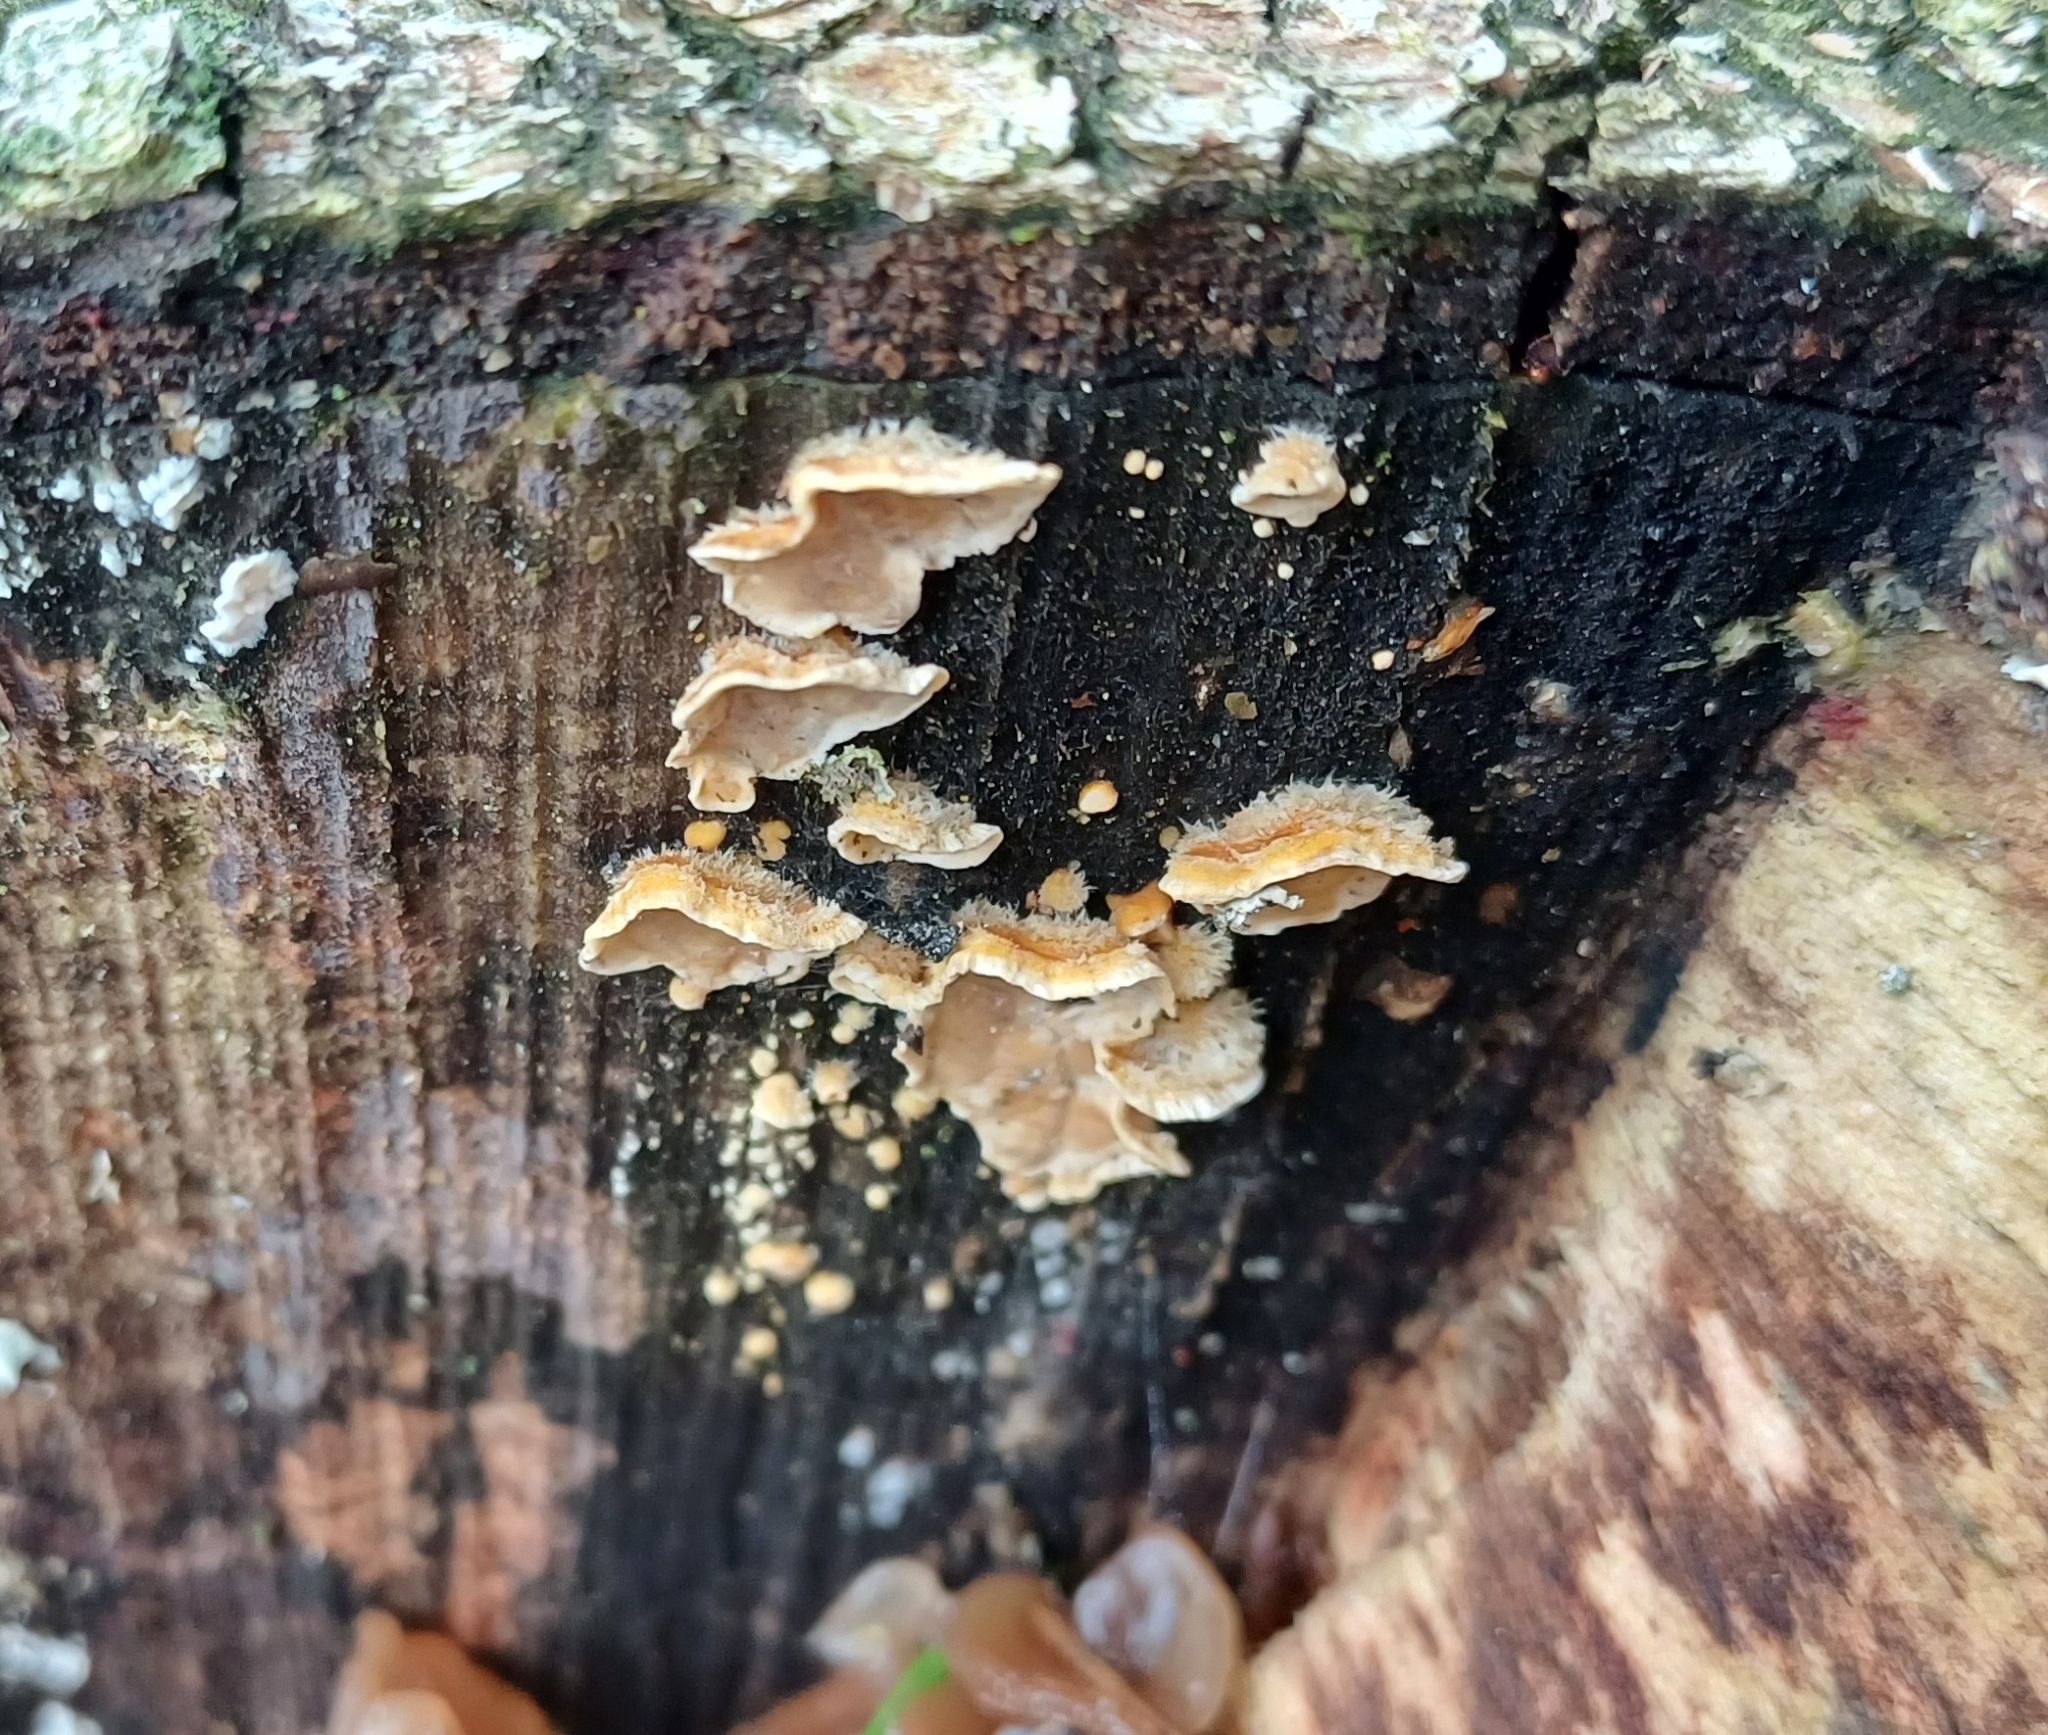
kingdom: Fungi
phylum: Basidiomycota
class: Agaricomycetes
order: Russulales
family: Stereaceae
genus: Stereum
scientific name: Stereum hirsutum
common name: Hairy curtain crust
